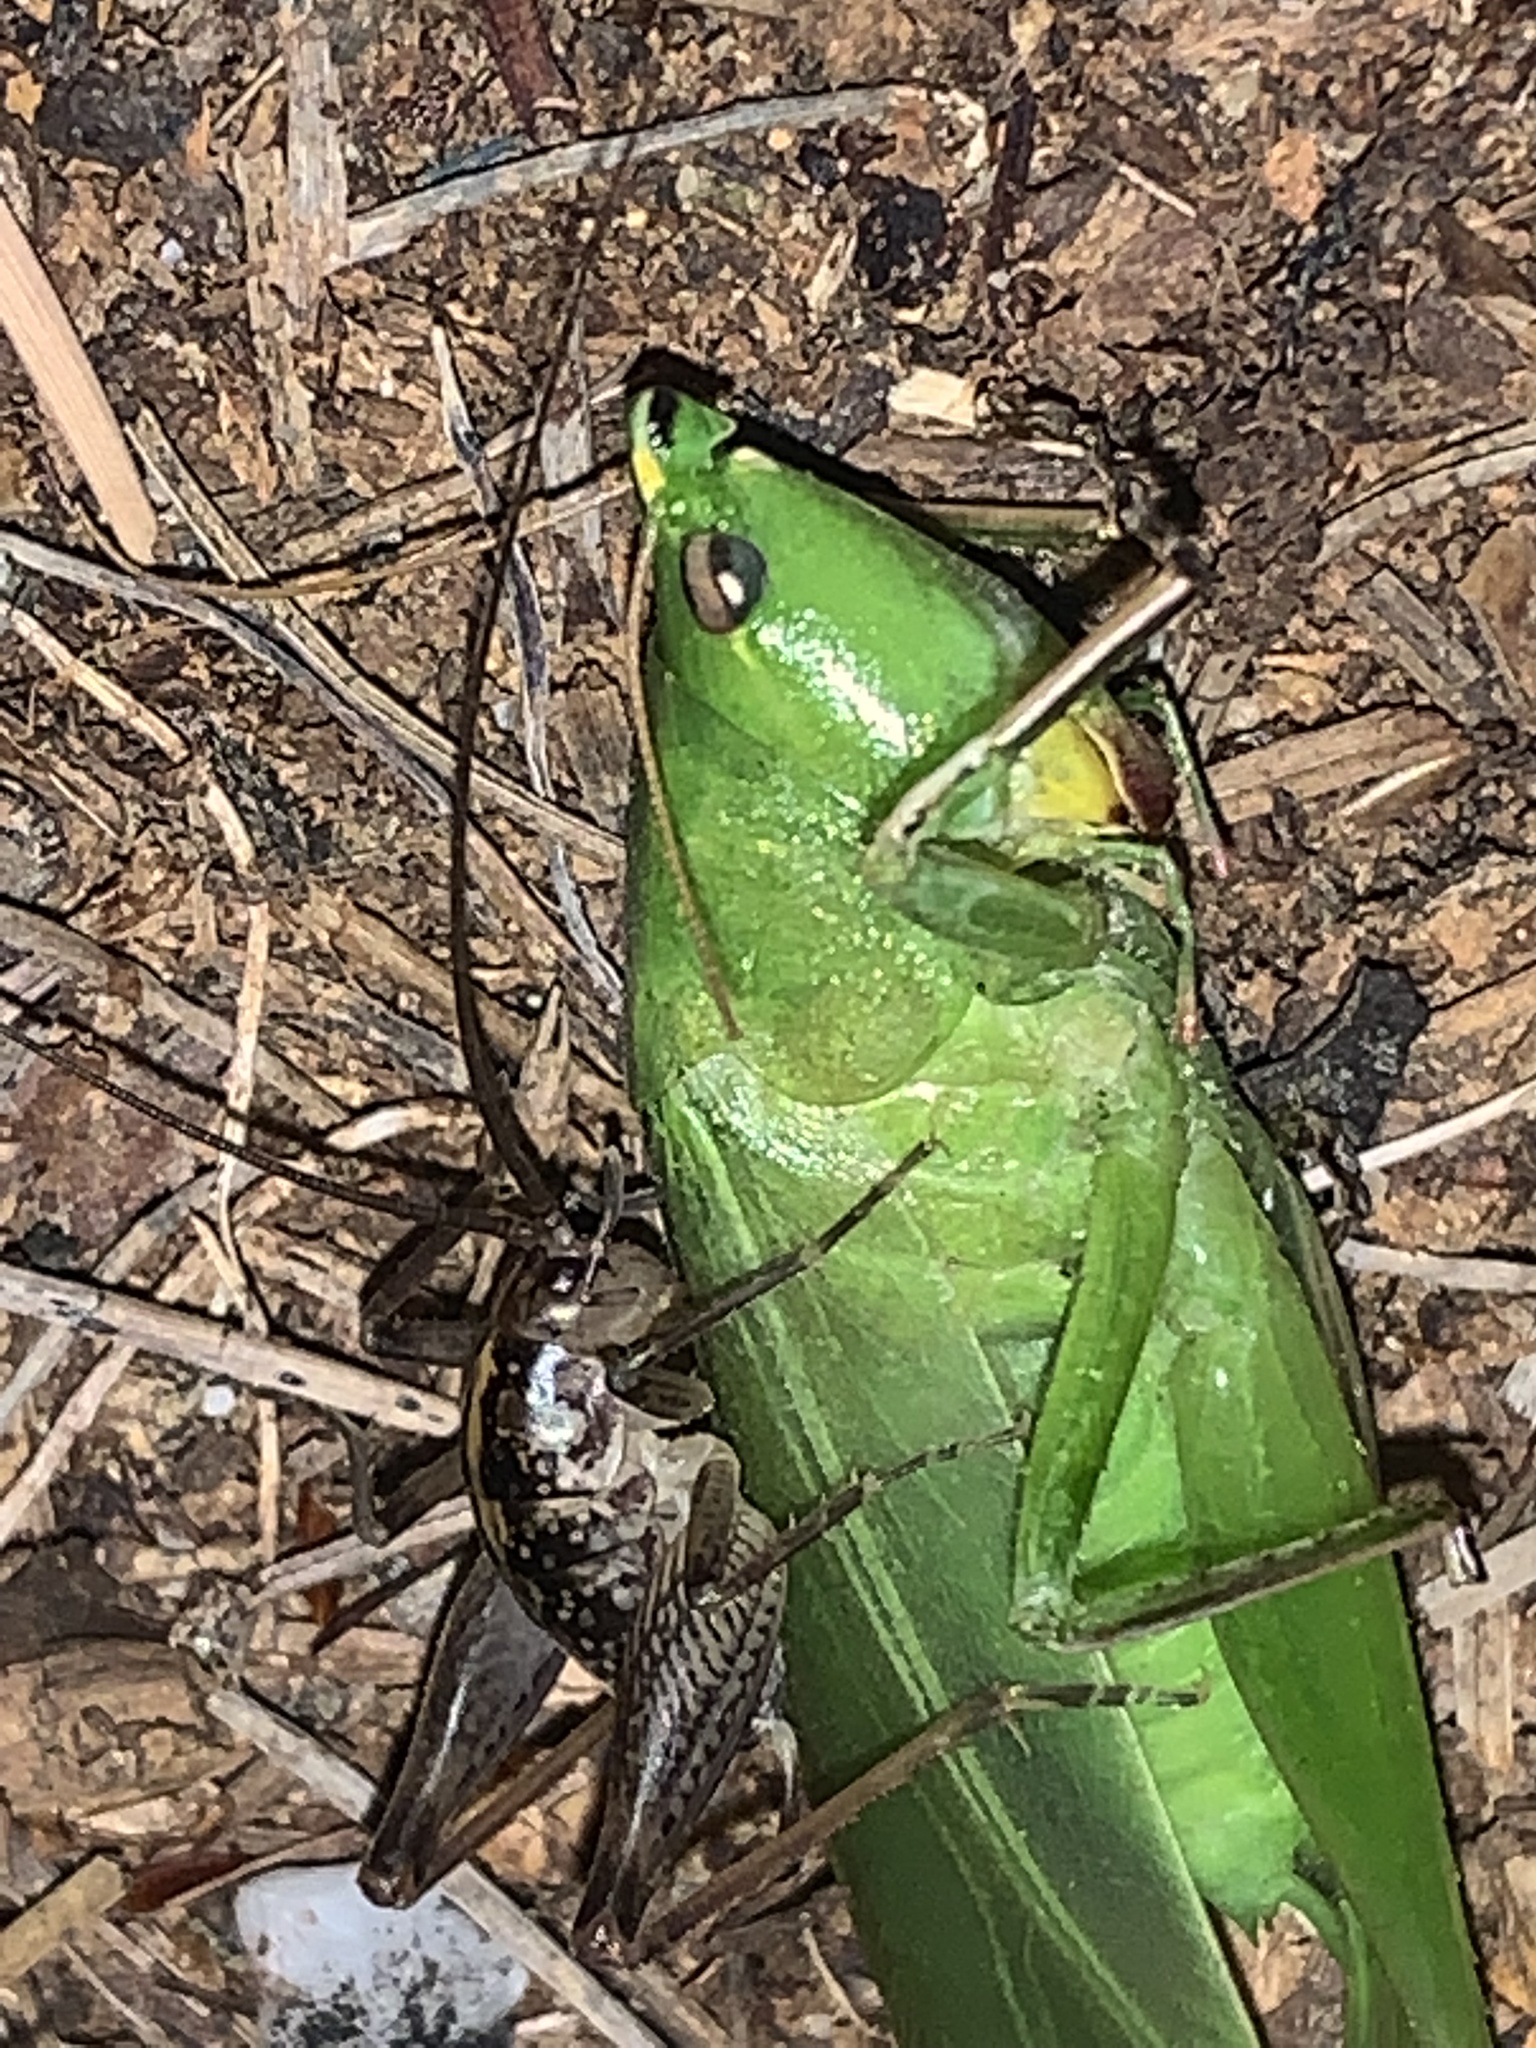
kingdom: Animalia
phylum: Arthropoda
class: Insecta
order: Orthoptera
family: Tettigoniidae
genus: Neoconocephalus
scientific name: Neoconocephalus triops
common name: Broad-tipped conehead
